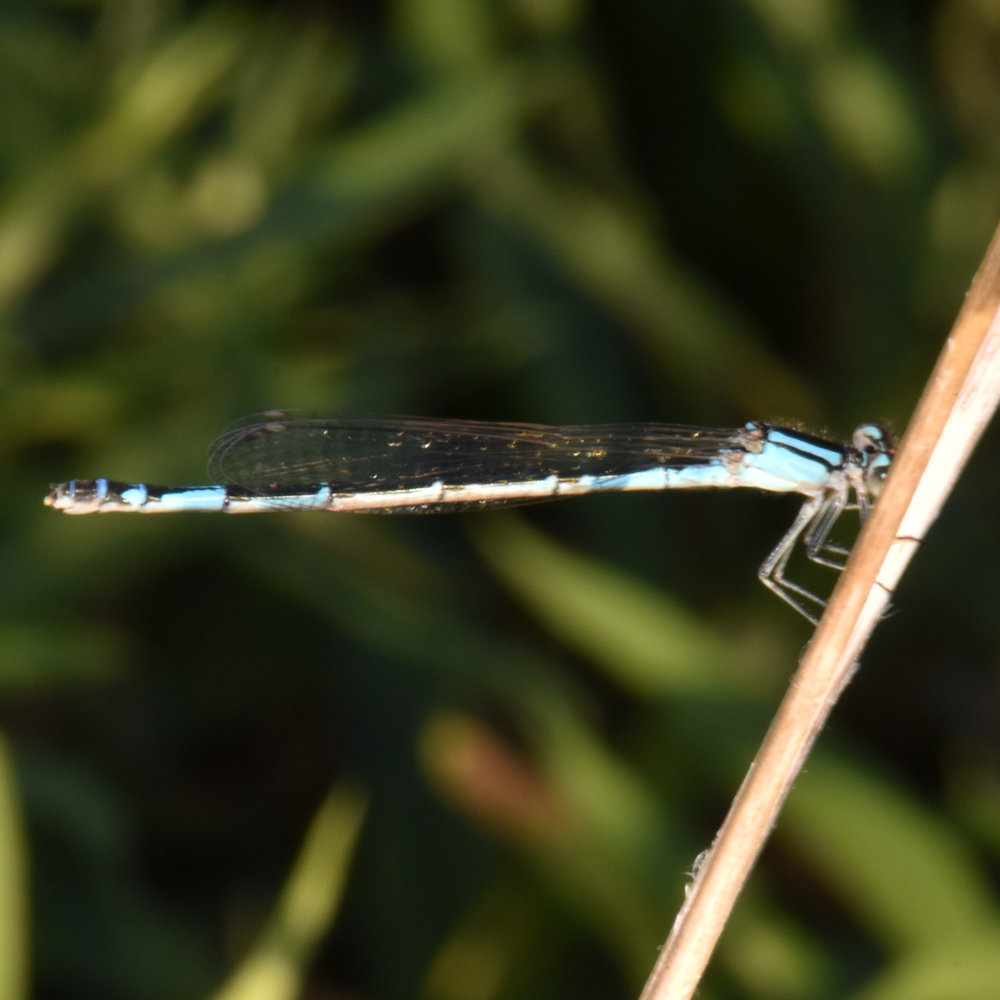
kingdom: Animalia
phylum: Arthropoda
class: Insecta
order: Odonata
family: Coenagrionidae
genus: Enallagma
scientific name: Enallagma aspersum
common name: Azure bluet
